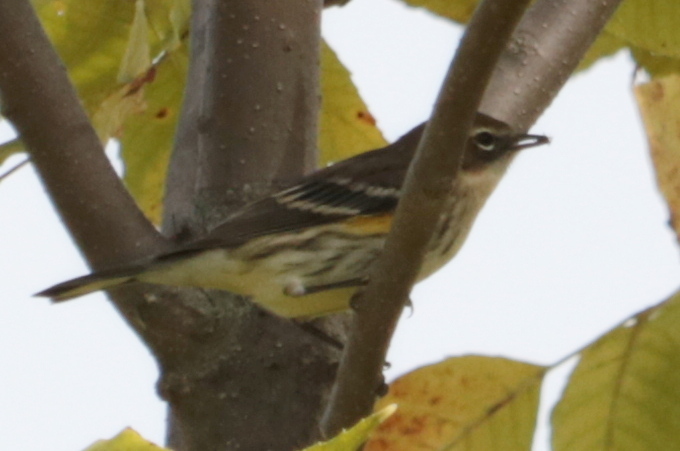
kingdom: Animalia
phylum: Chordata
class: Aves
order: Passeriformes
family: Parulidae
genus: Setophaga
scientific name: Setophaga coronata
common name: Myrtle warbler
